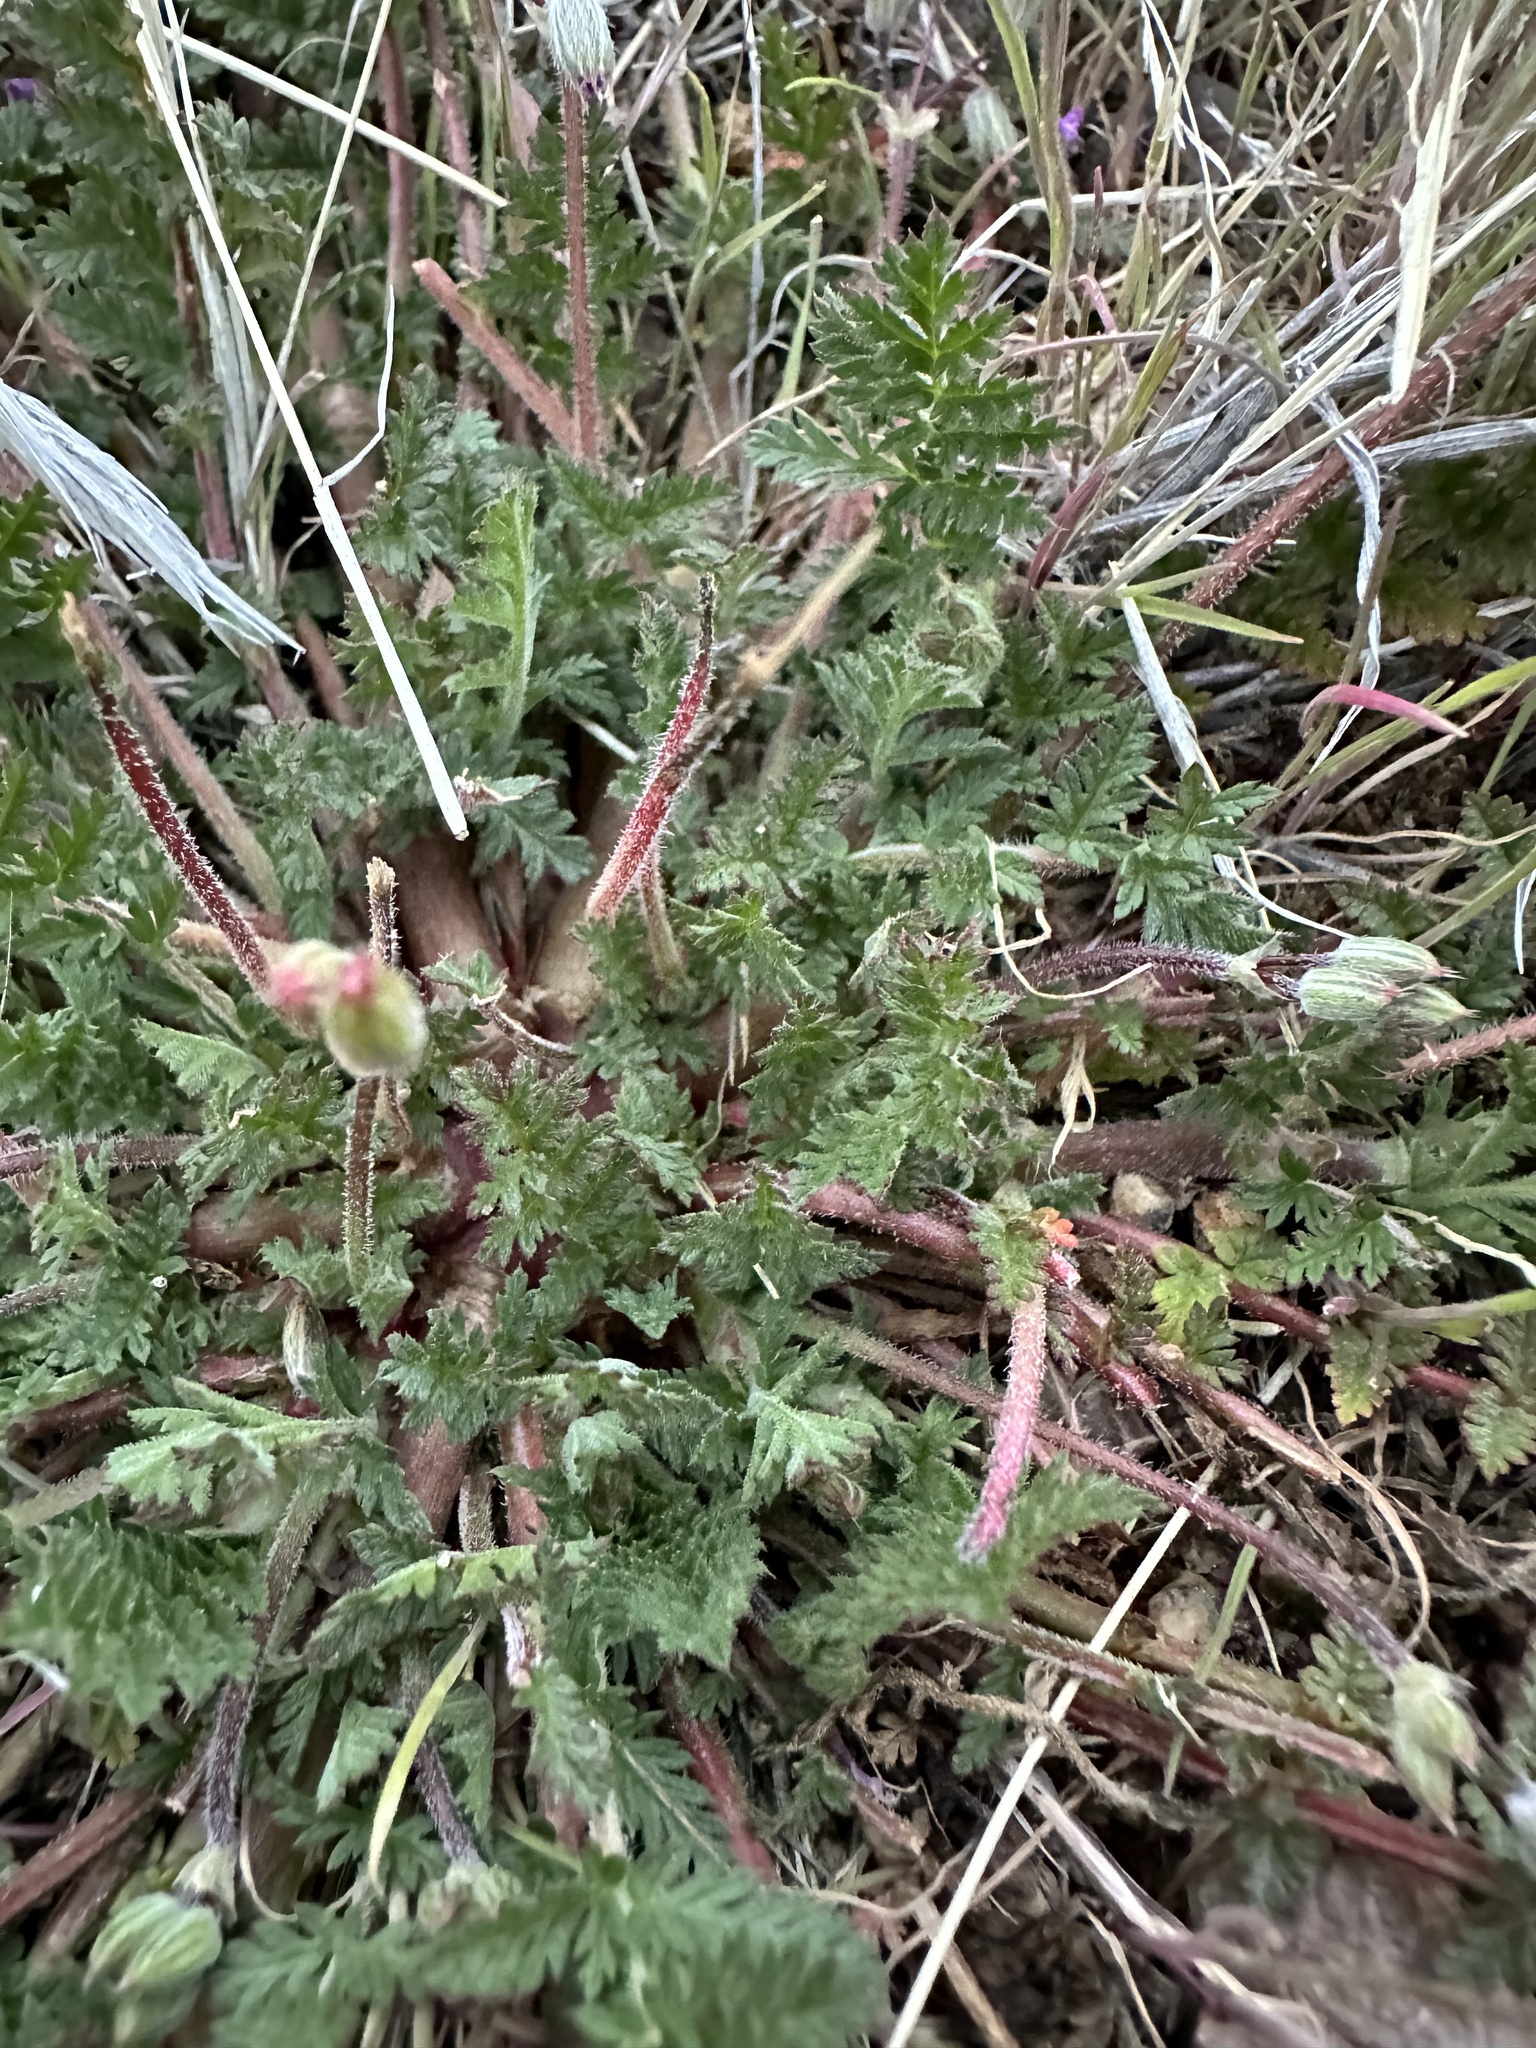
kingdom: Plantae
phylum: Tracheophyta
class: Magnoliopsida
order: Geraniales
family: Geraniaceae
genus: Erodium
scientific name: Erodium cicutarium
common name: Common stork's-bill
